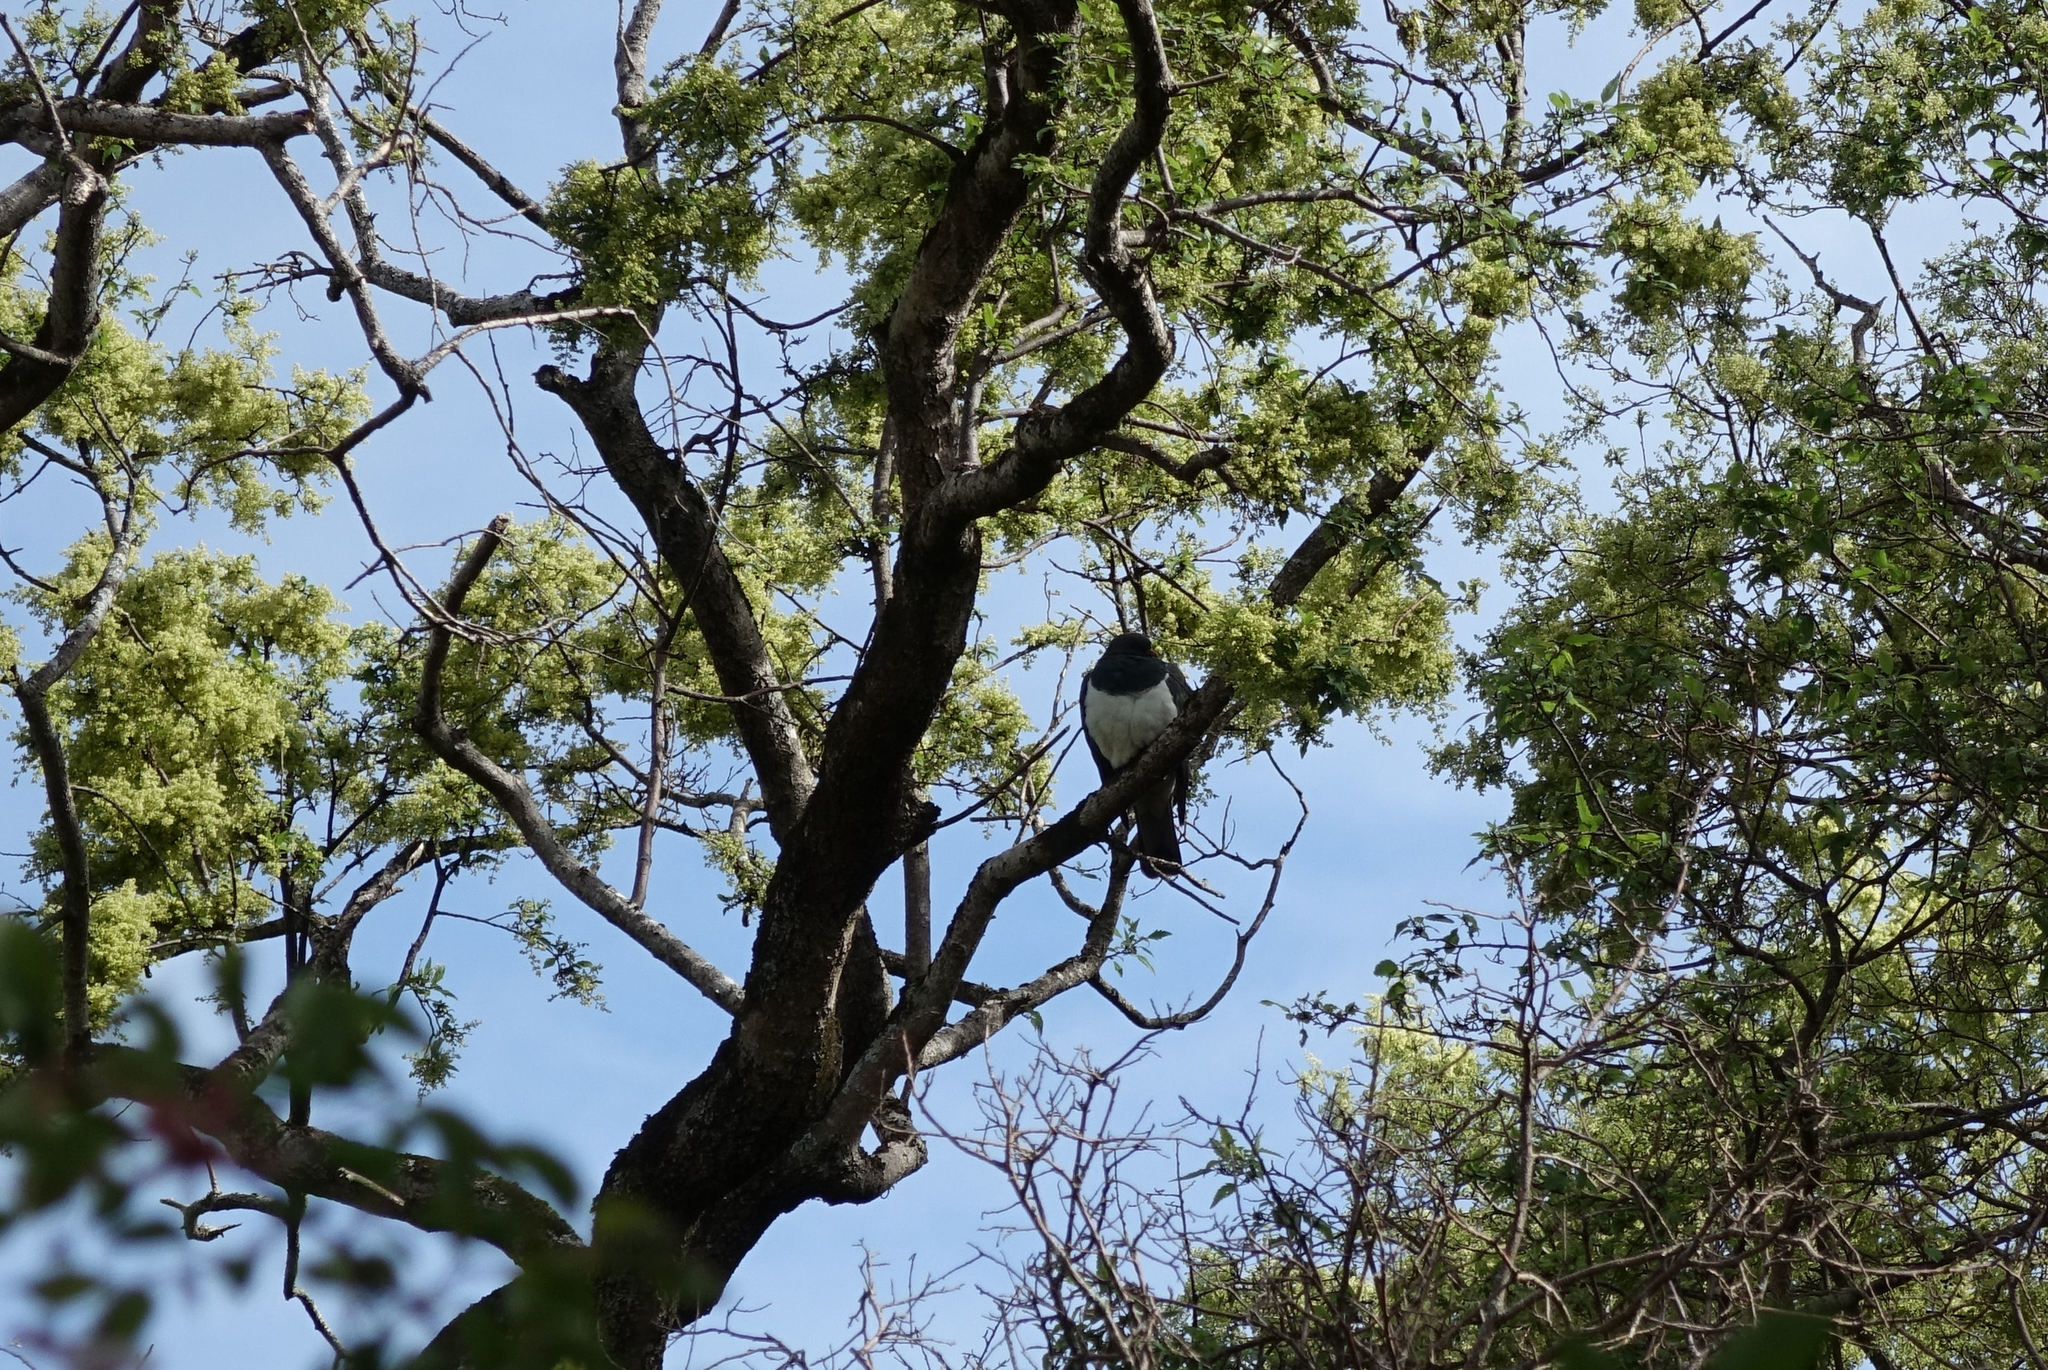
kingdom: Animalia
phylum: Chordata
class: Aves
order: Columbiformes
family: Columbidae
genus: Hemiphaga
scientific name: Hemiphaga novaeseelandiae
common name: New zealand pigeon
